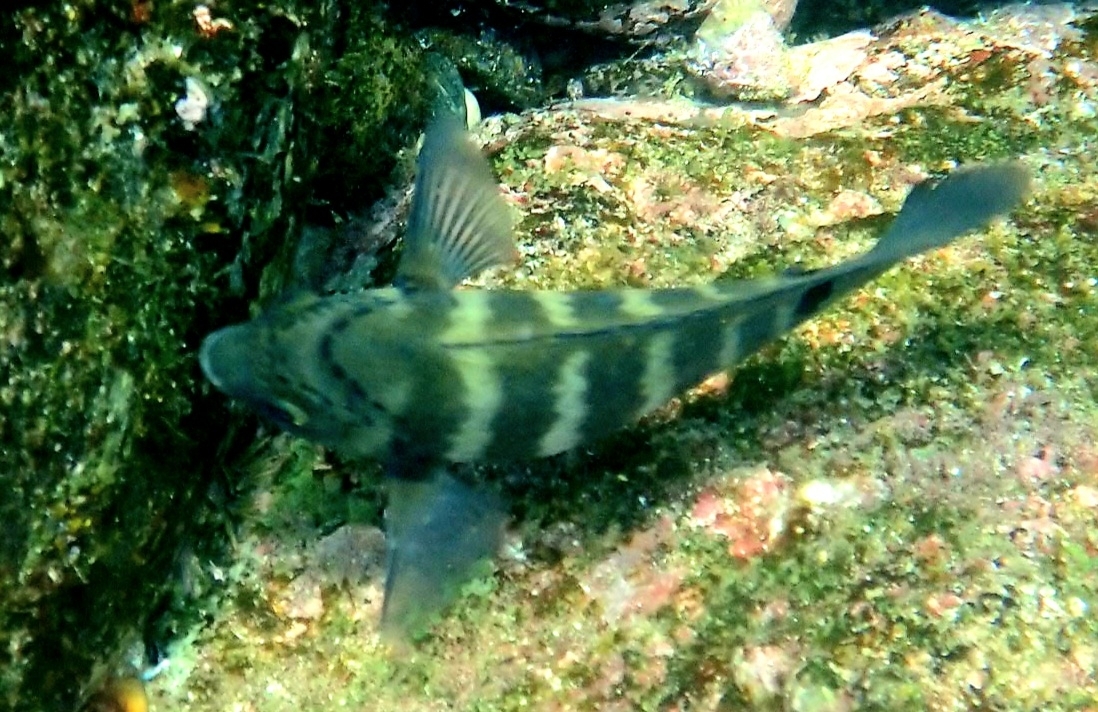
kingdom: Animalia
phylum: Chordata
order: Perciformes
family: Pomacentridae
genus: Abudefduf
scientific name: Abudefduf sordidus
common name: Blackspot sergeant
